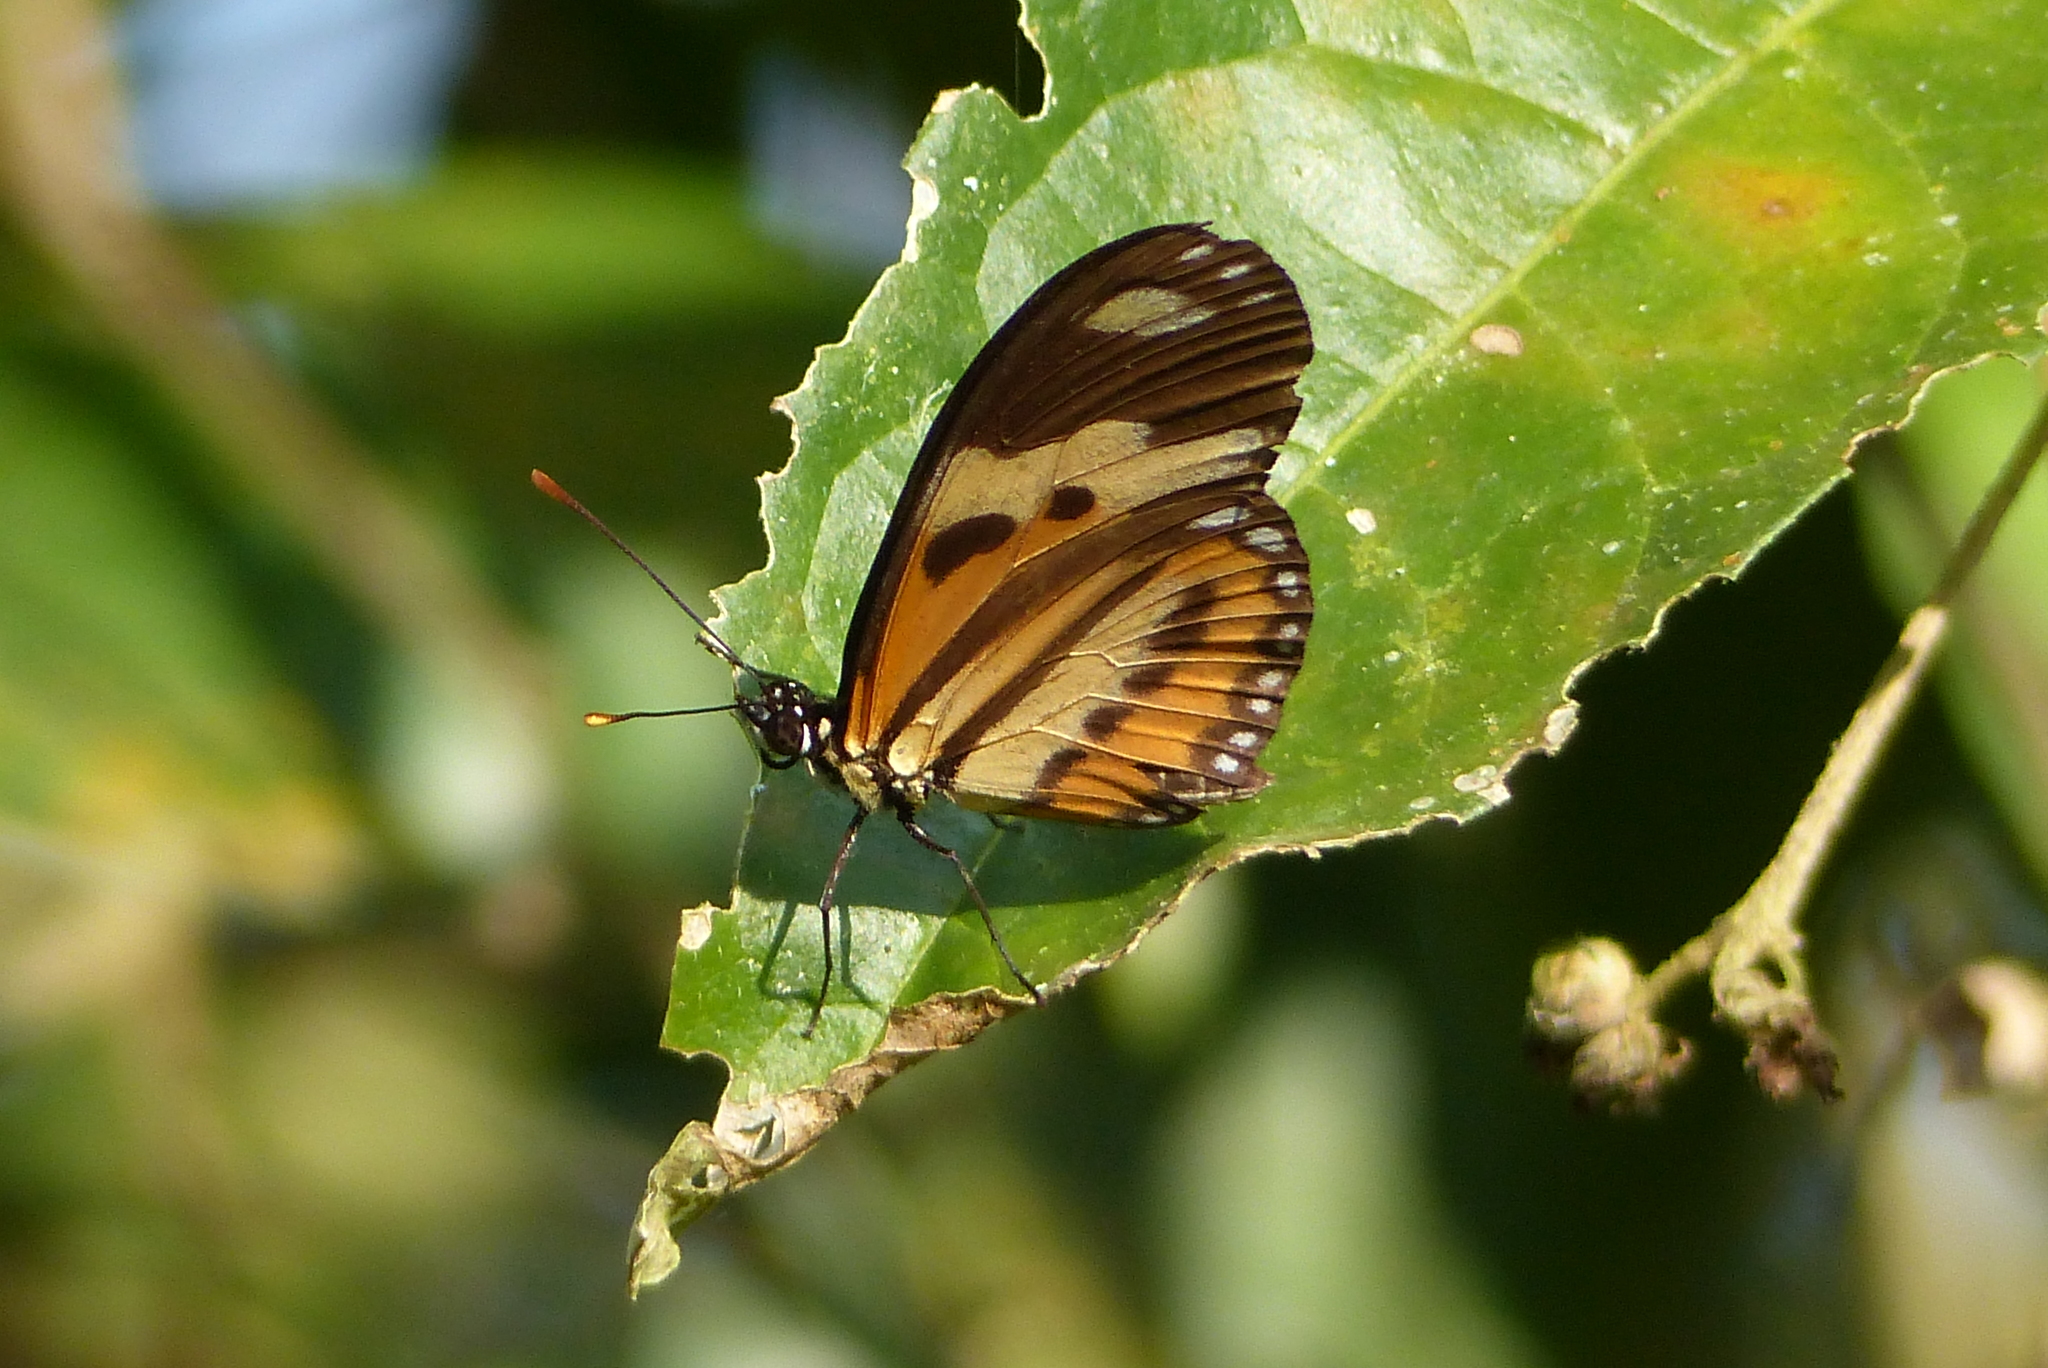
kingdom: Animalia
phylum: Arthropoda
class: Insecta
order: Lepidoptera
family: Nymphalidae
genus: Eueides
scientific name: Eueides isabella
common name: Isabella's longwing
